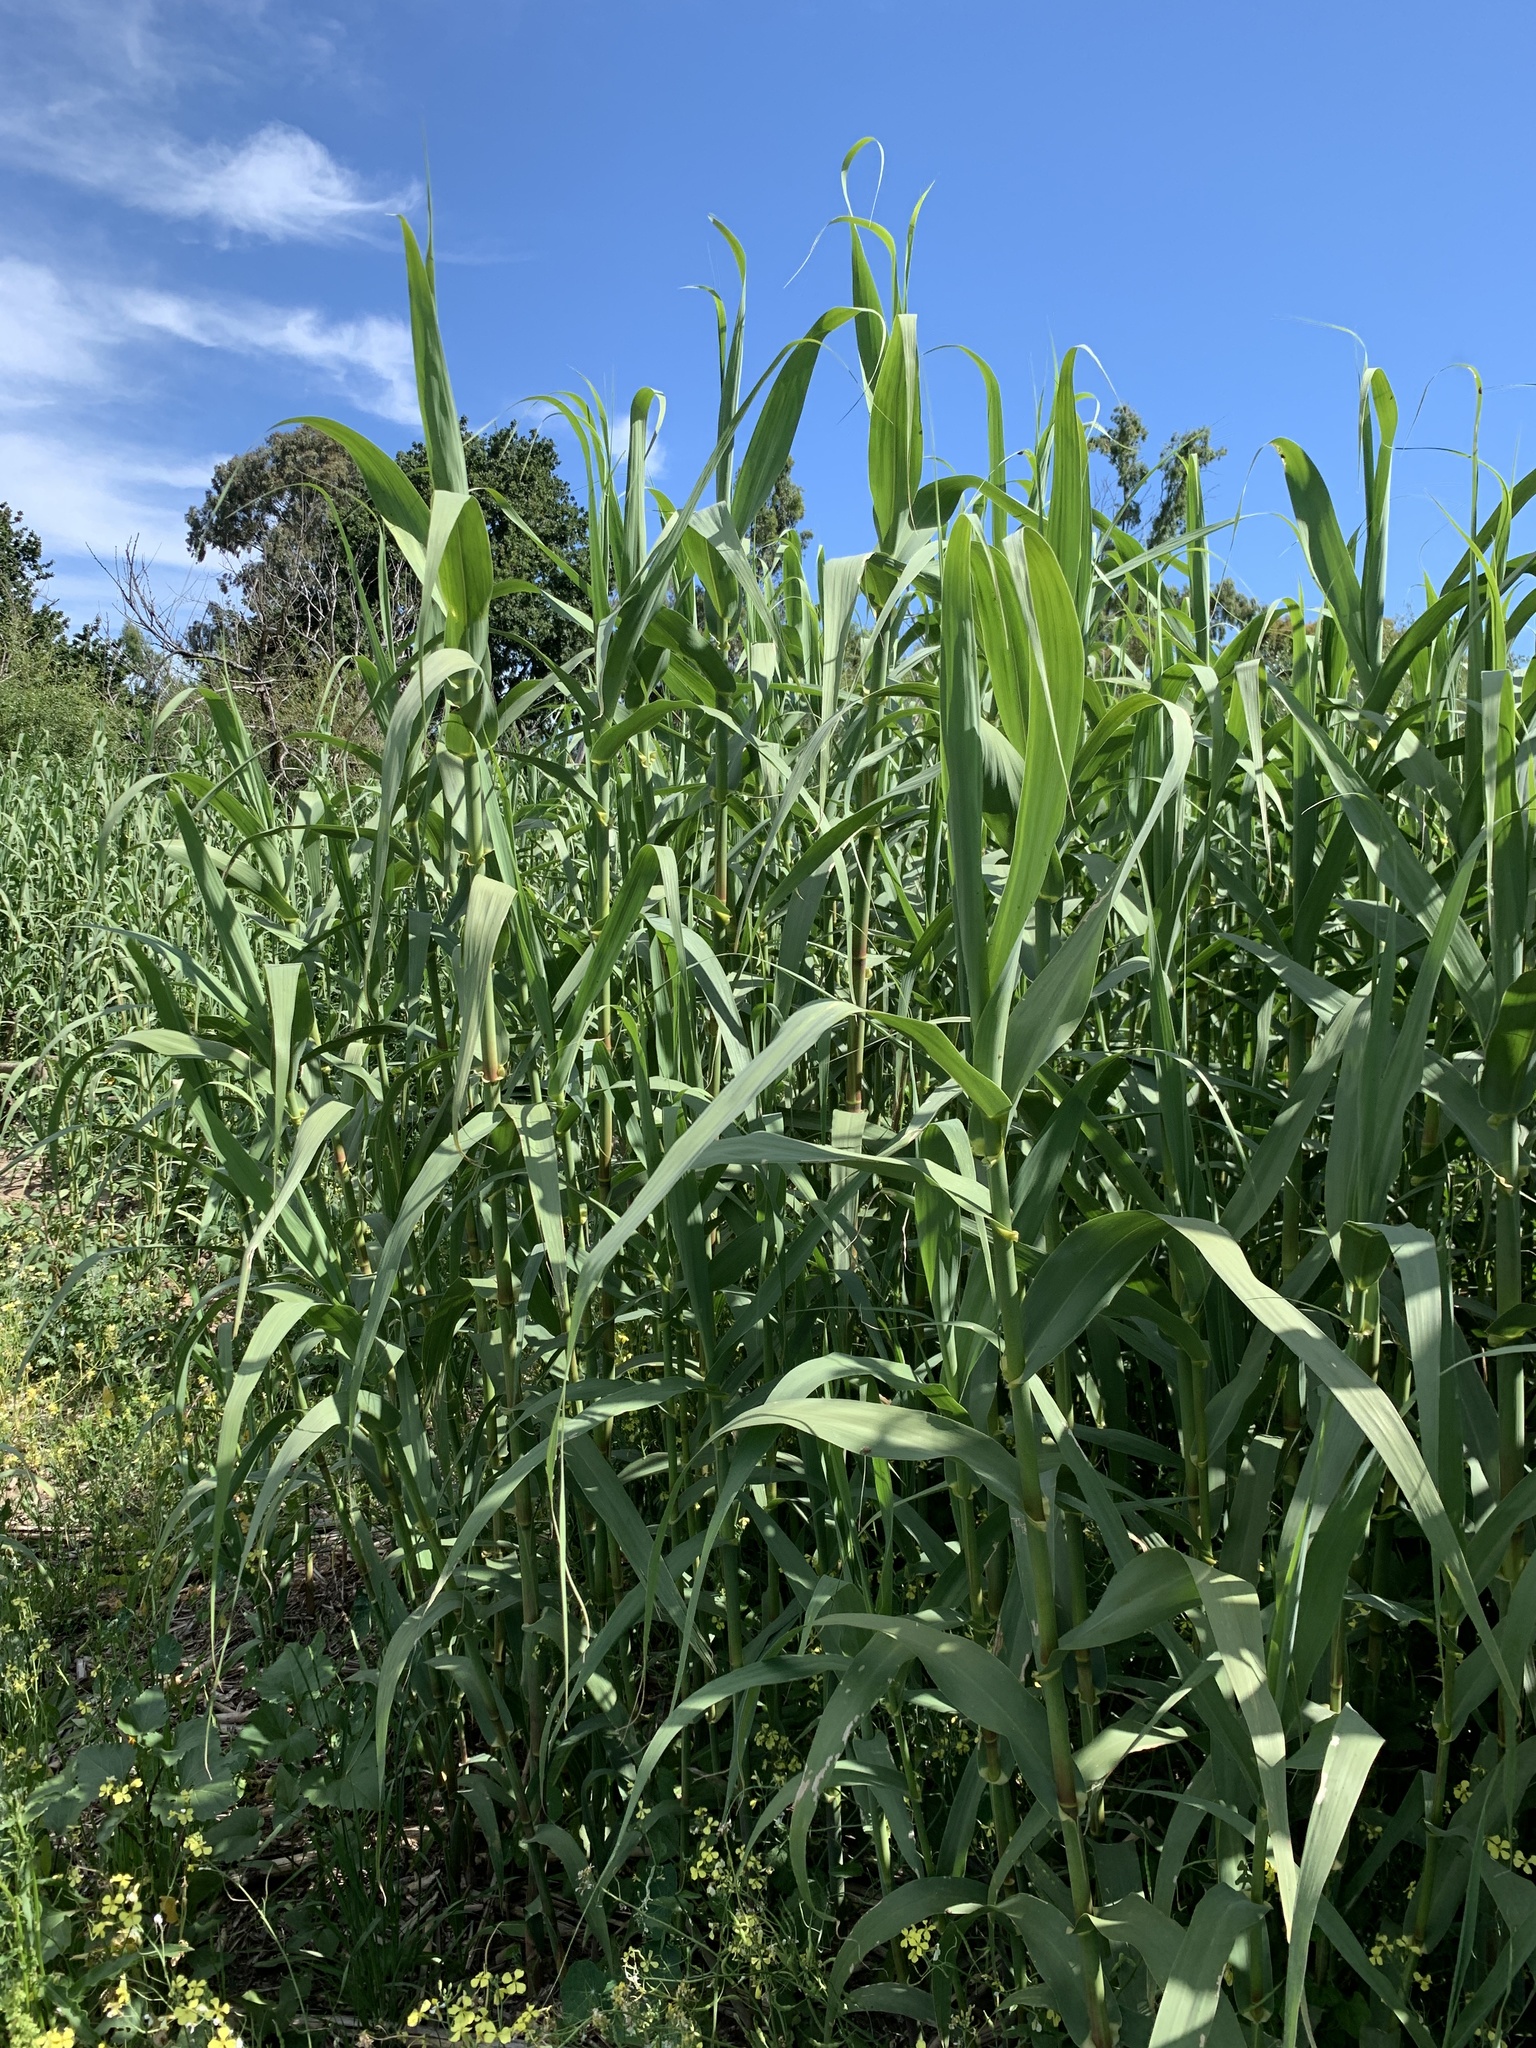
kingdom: Plantae
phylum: Tracheophyta
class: Liliopsida
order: Poales
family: Poaceae
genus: Arundo
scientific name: Arundo donax
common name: Giant reed
